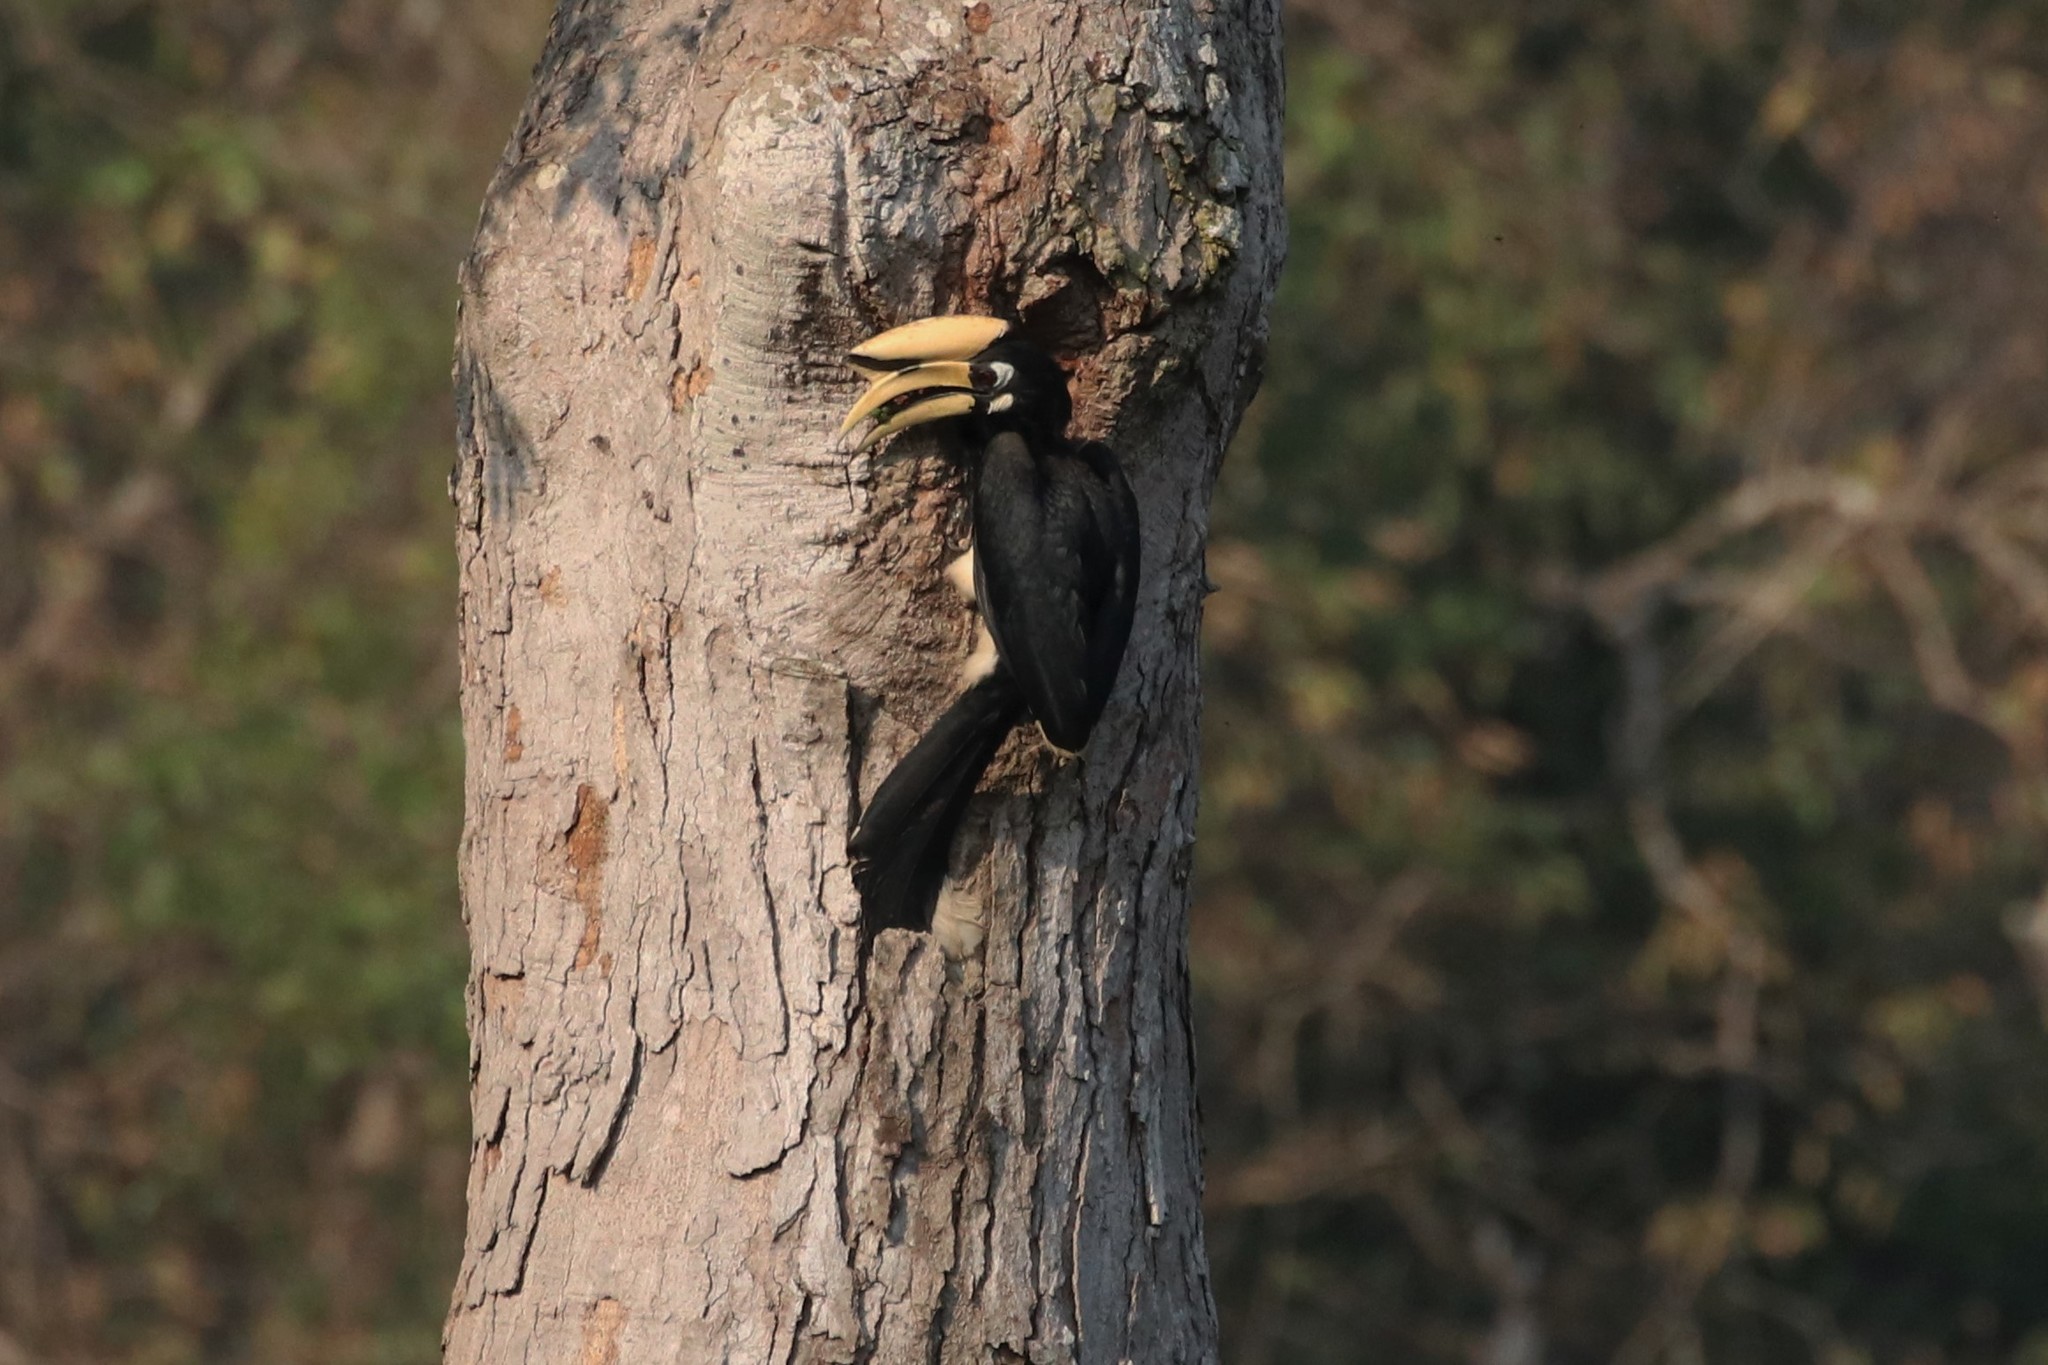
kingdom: Animalia
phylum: Chordata
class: Aves
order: Bucerotiformes
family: Bucerotidae
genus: Anthracoceros
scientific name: Anthracoceros albirostris
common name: Oriental pied-hornbill
